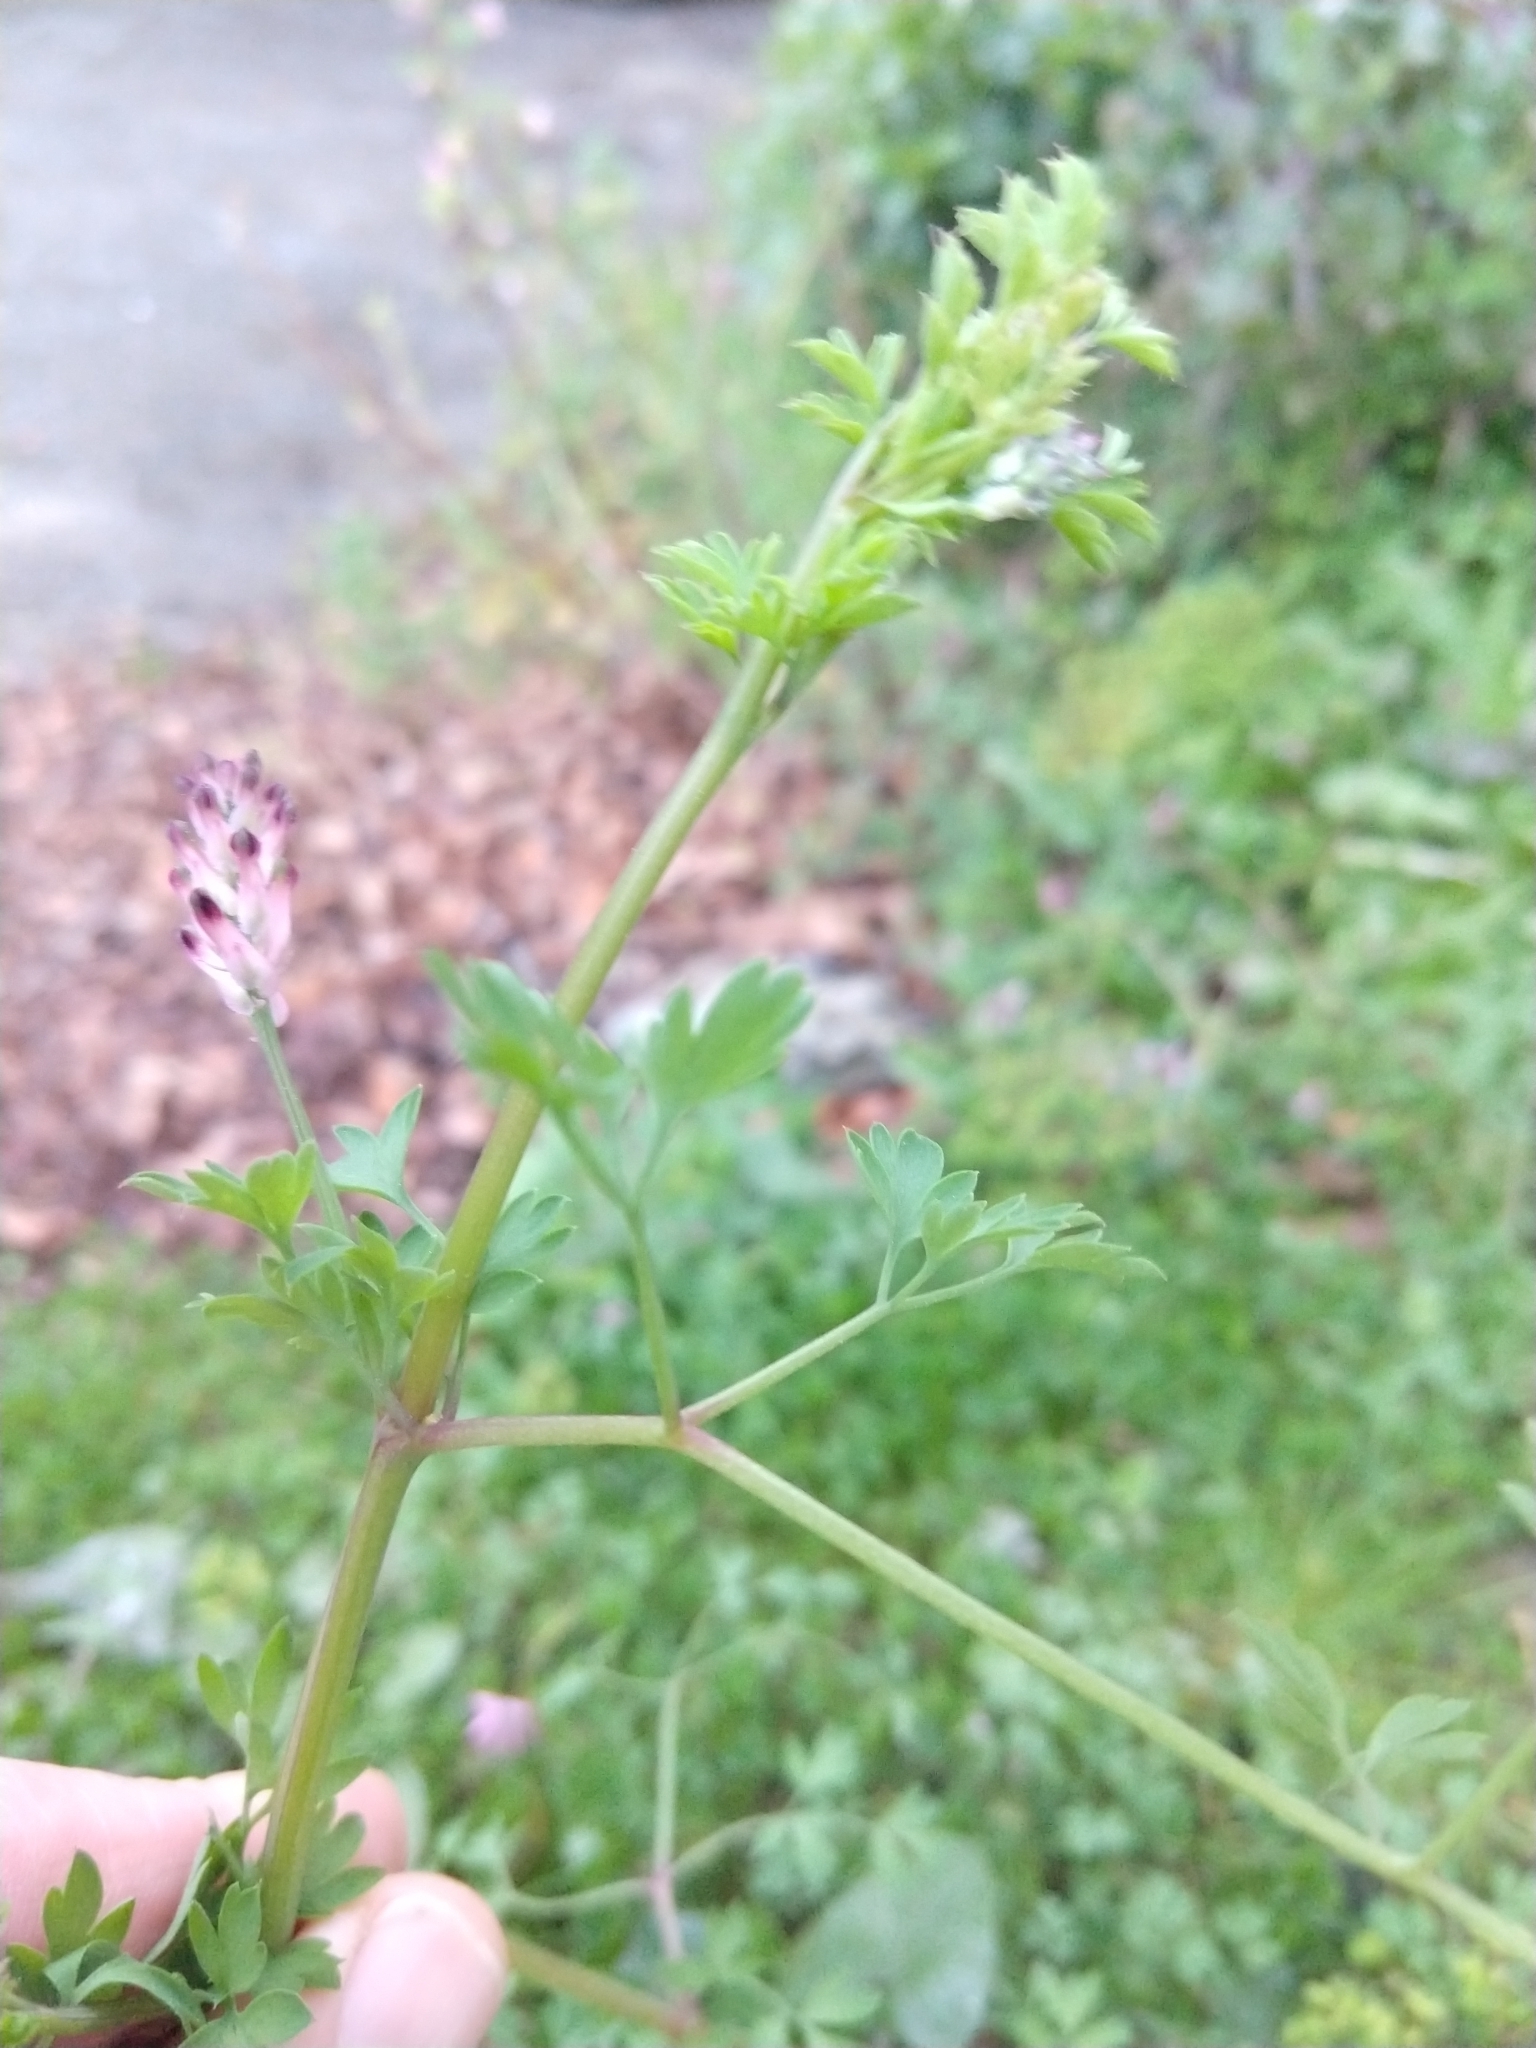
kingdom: Plantae
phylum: Tracheophyta
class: Magnoliopsida
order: Ranunculales
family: Papaveraceae
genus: Fumaria
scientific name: Fumaria muralis
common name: Common ramping-fumitory
